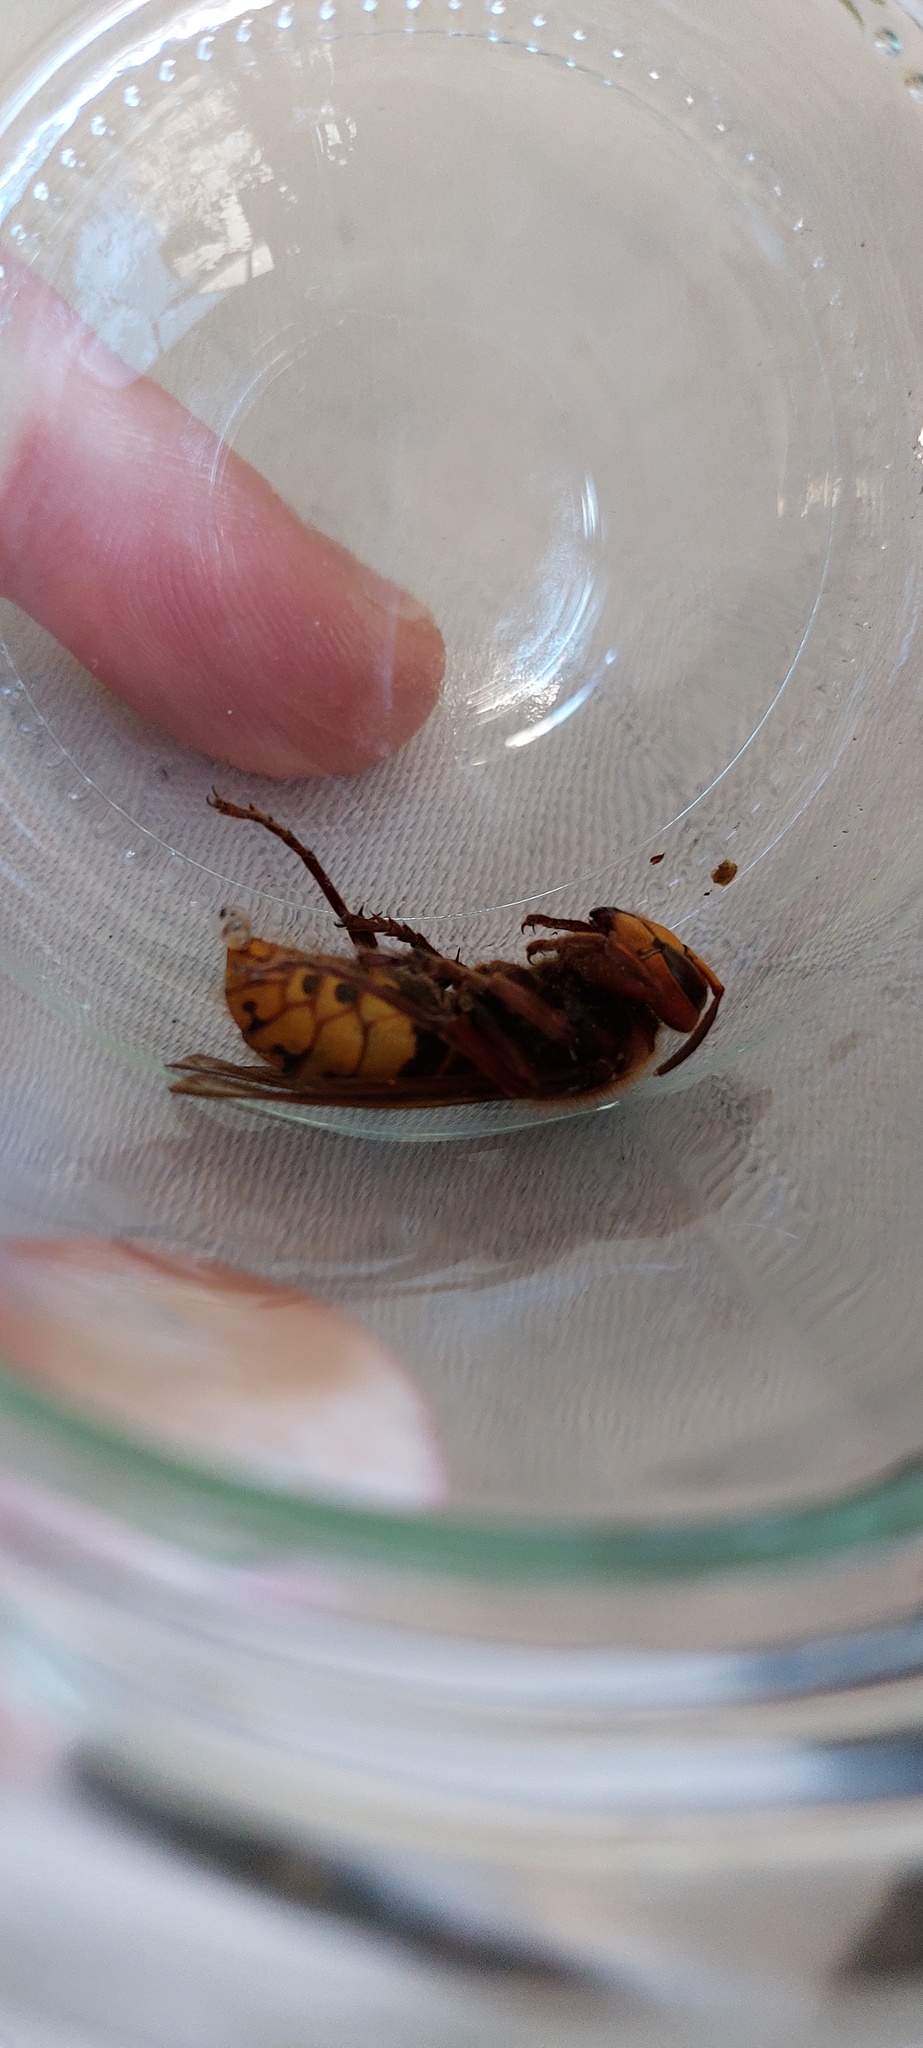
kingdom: Animalia
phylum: Arthropoda
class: Insecta
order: Hymenoptera
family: Vespidae
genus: Vespa
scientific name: Vespa crabro
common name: Hornet
